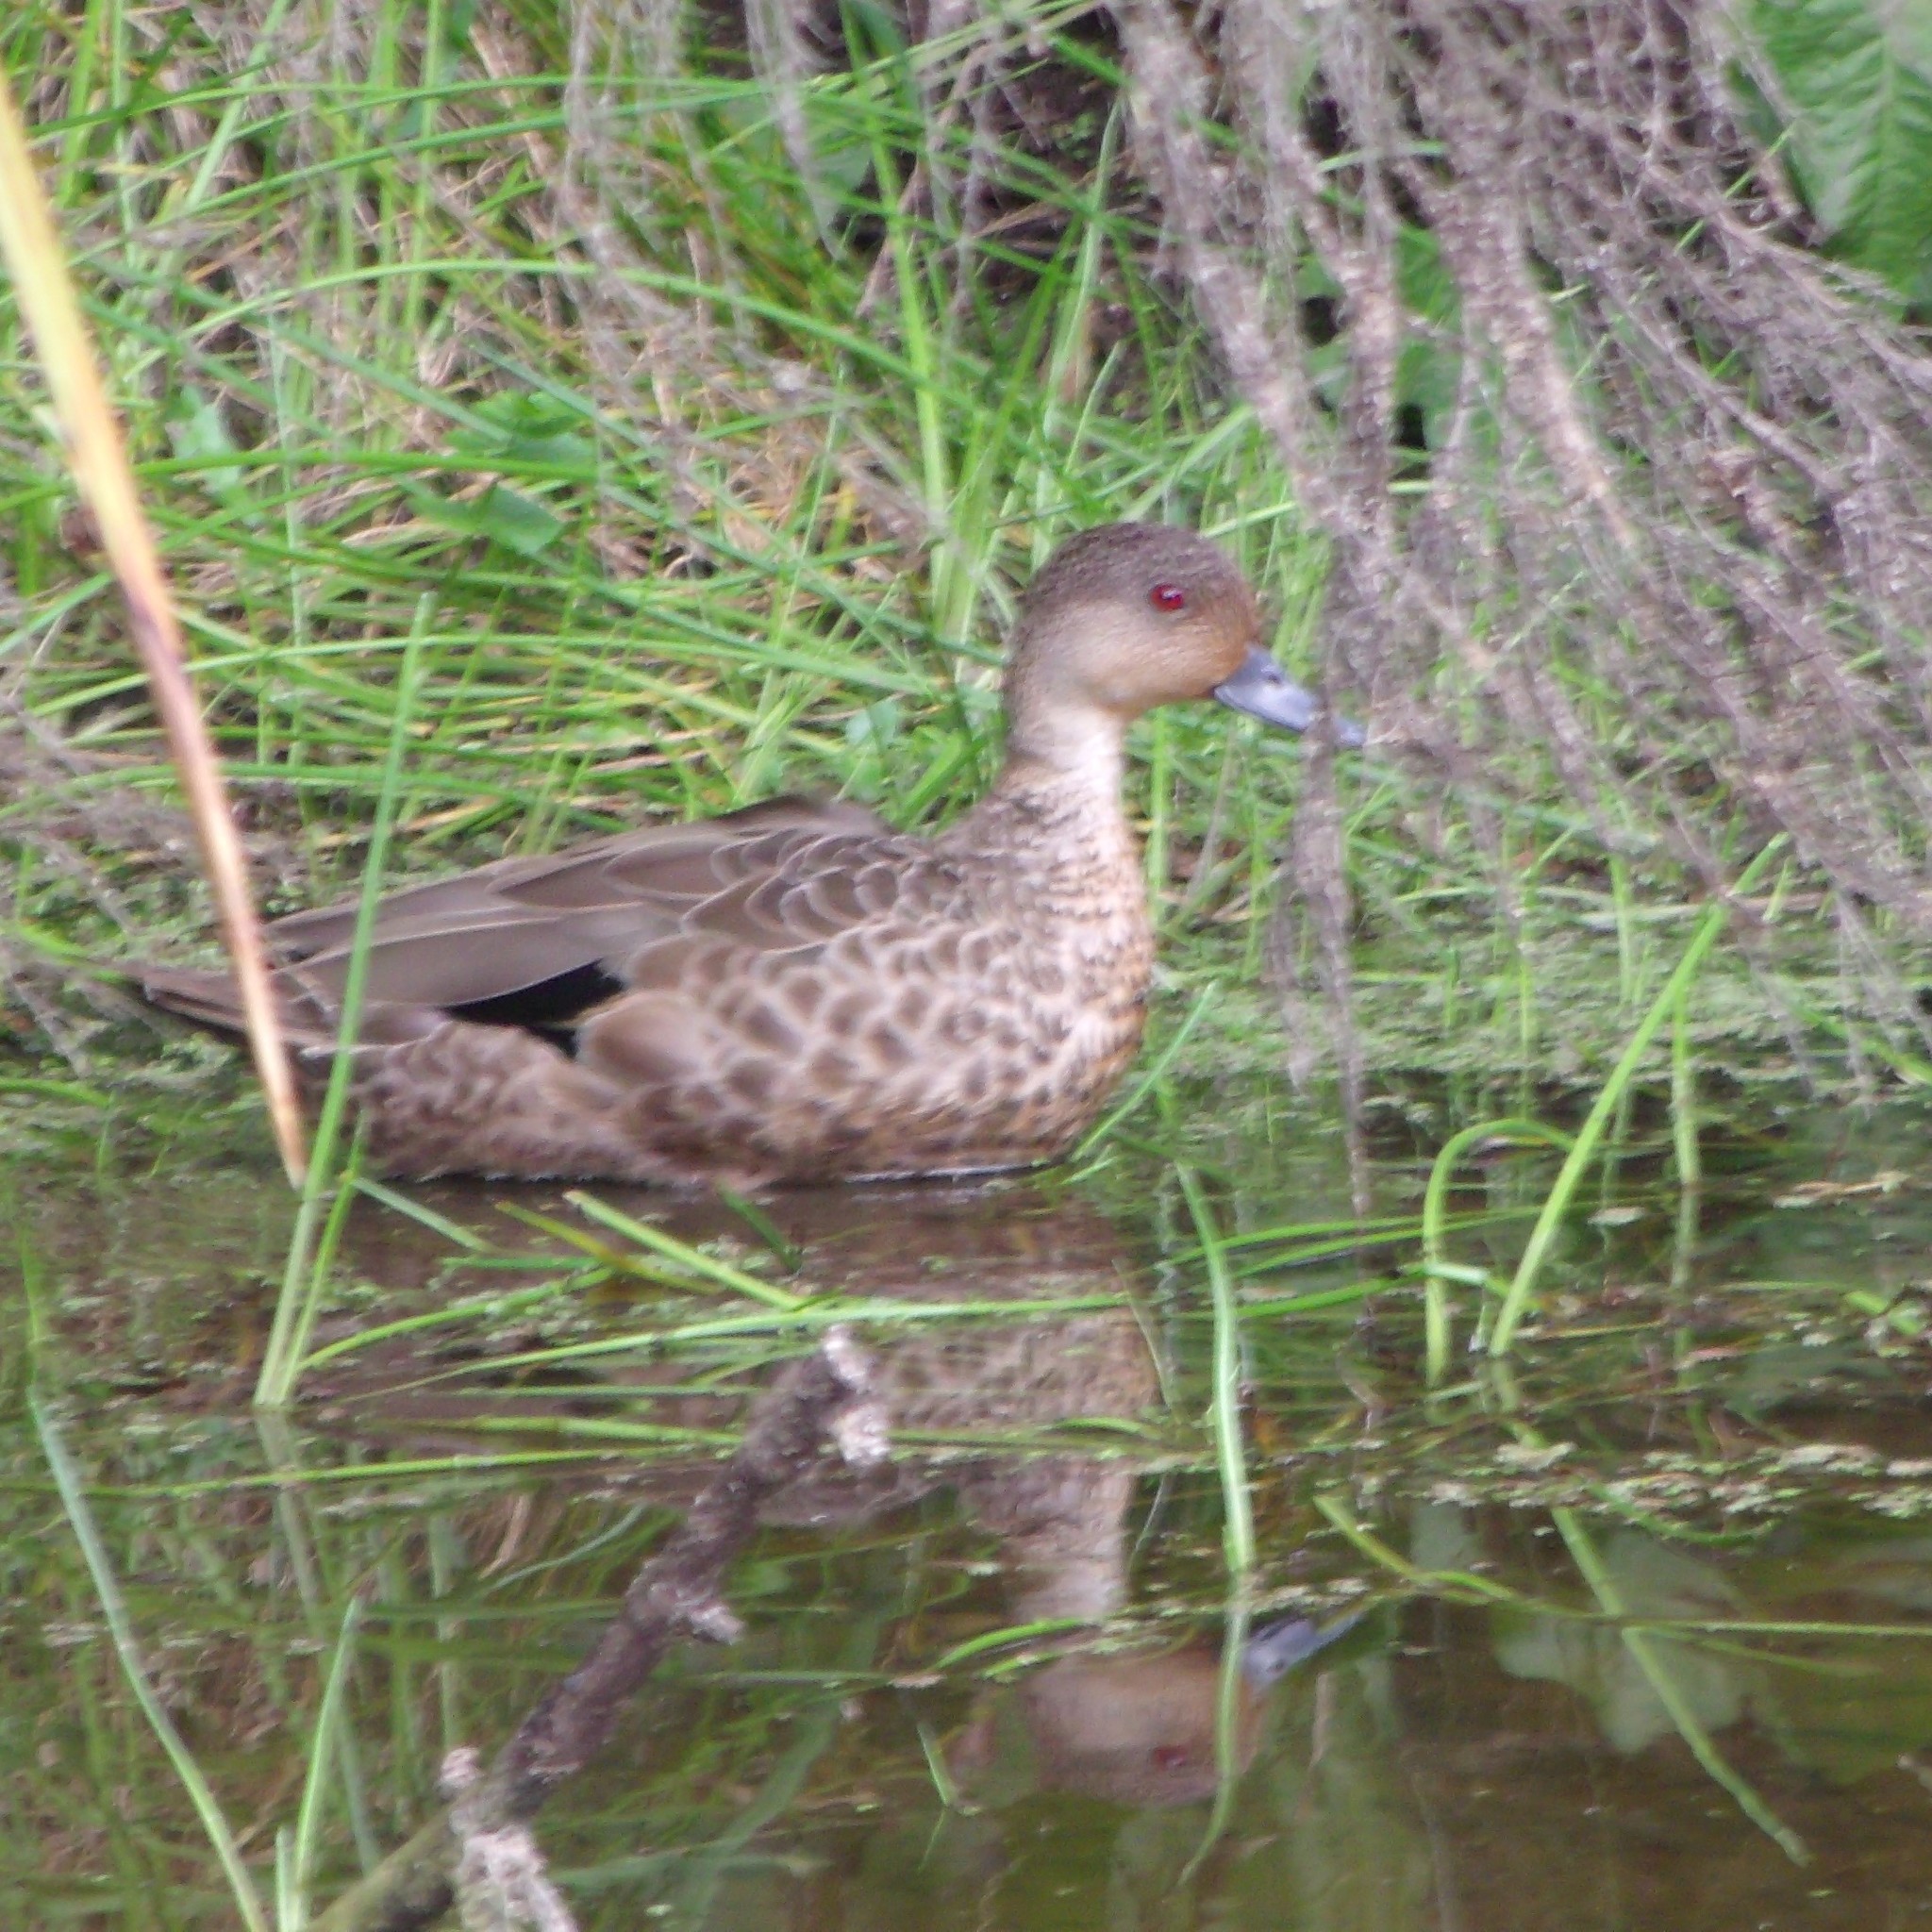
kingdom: Animalia
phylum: Chordata
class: Aves
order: Anseriformes
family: Anatidae
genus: Anas
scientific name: Anas gracilis
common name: Grey teal
